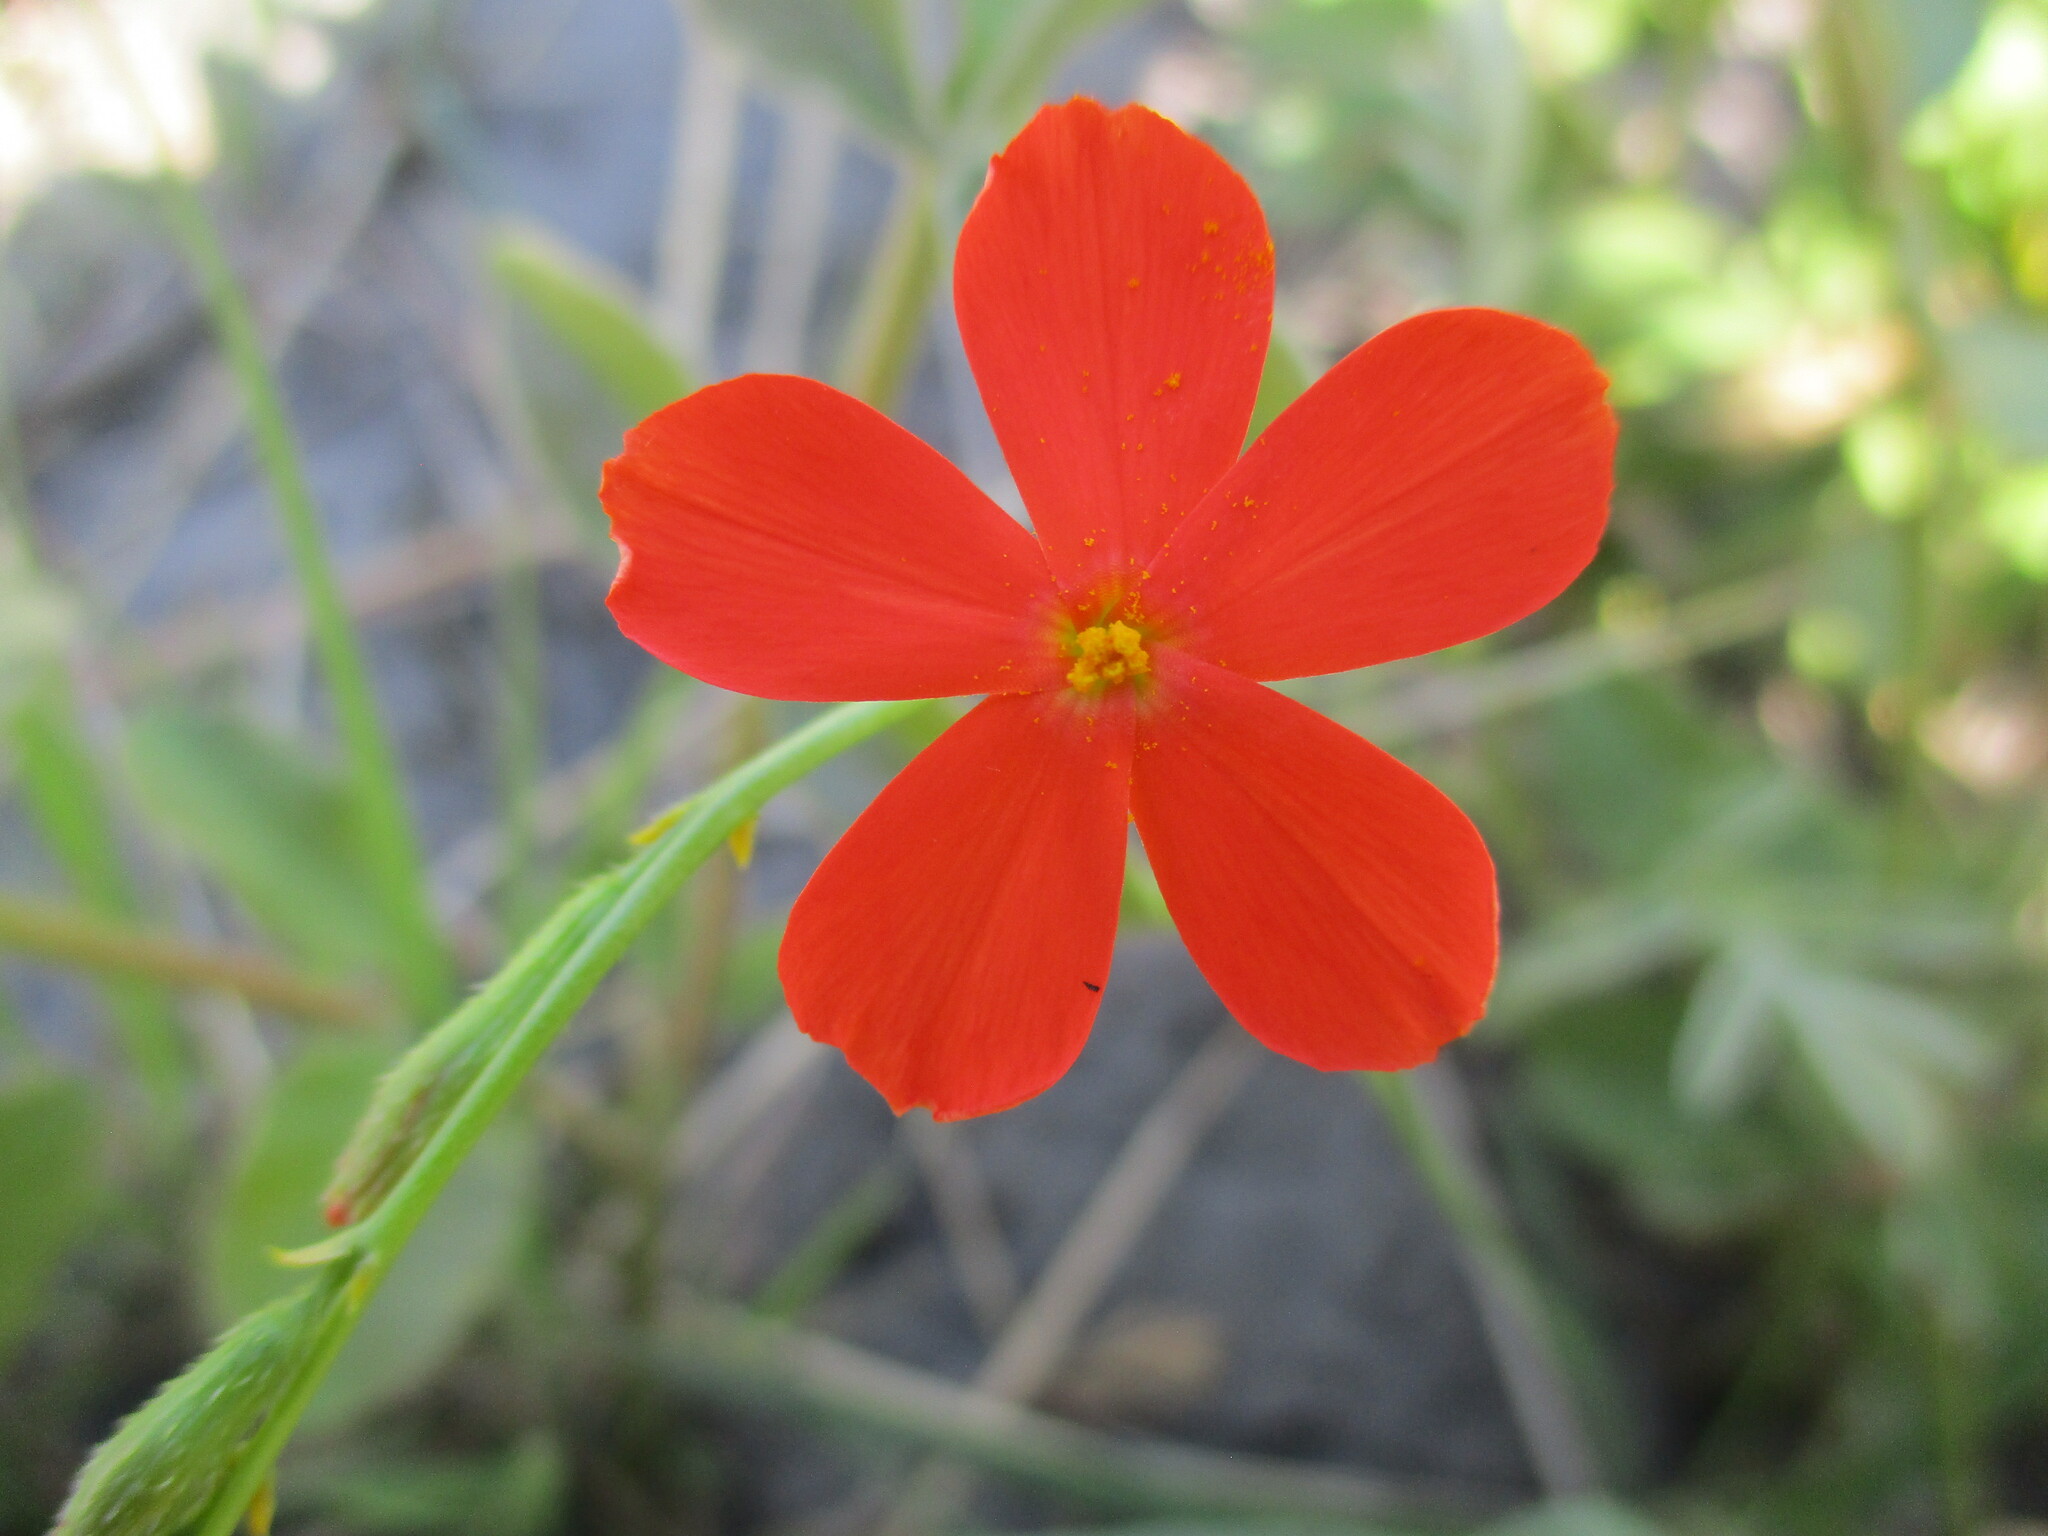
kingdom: Plantae
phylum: Tracheophyta
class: Magnoliopsida
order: Malpighiales
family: Turneraceae
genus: Tricliceras
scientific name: Tricliceras longepedunculatum
